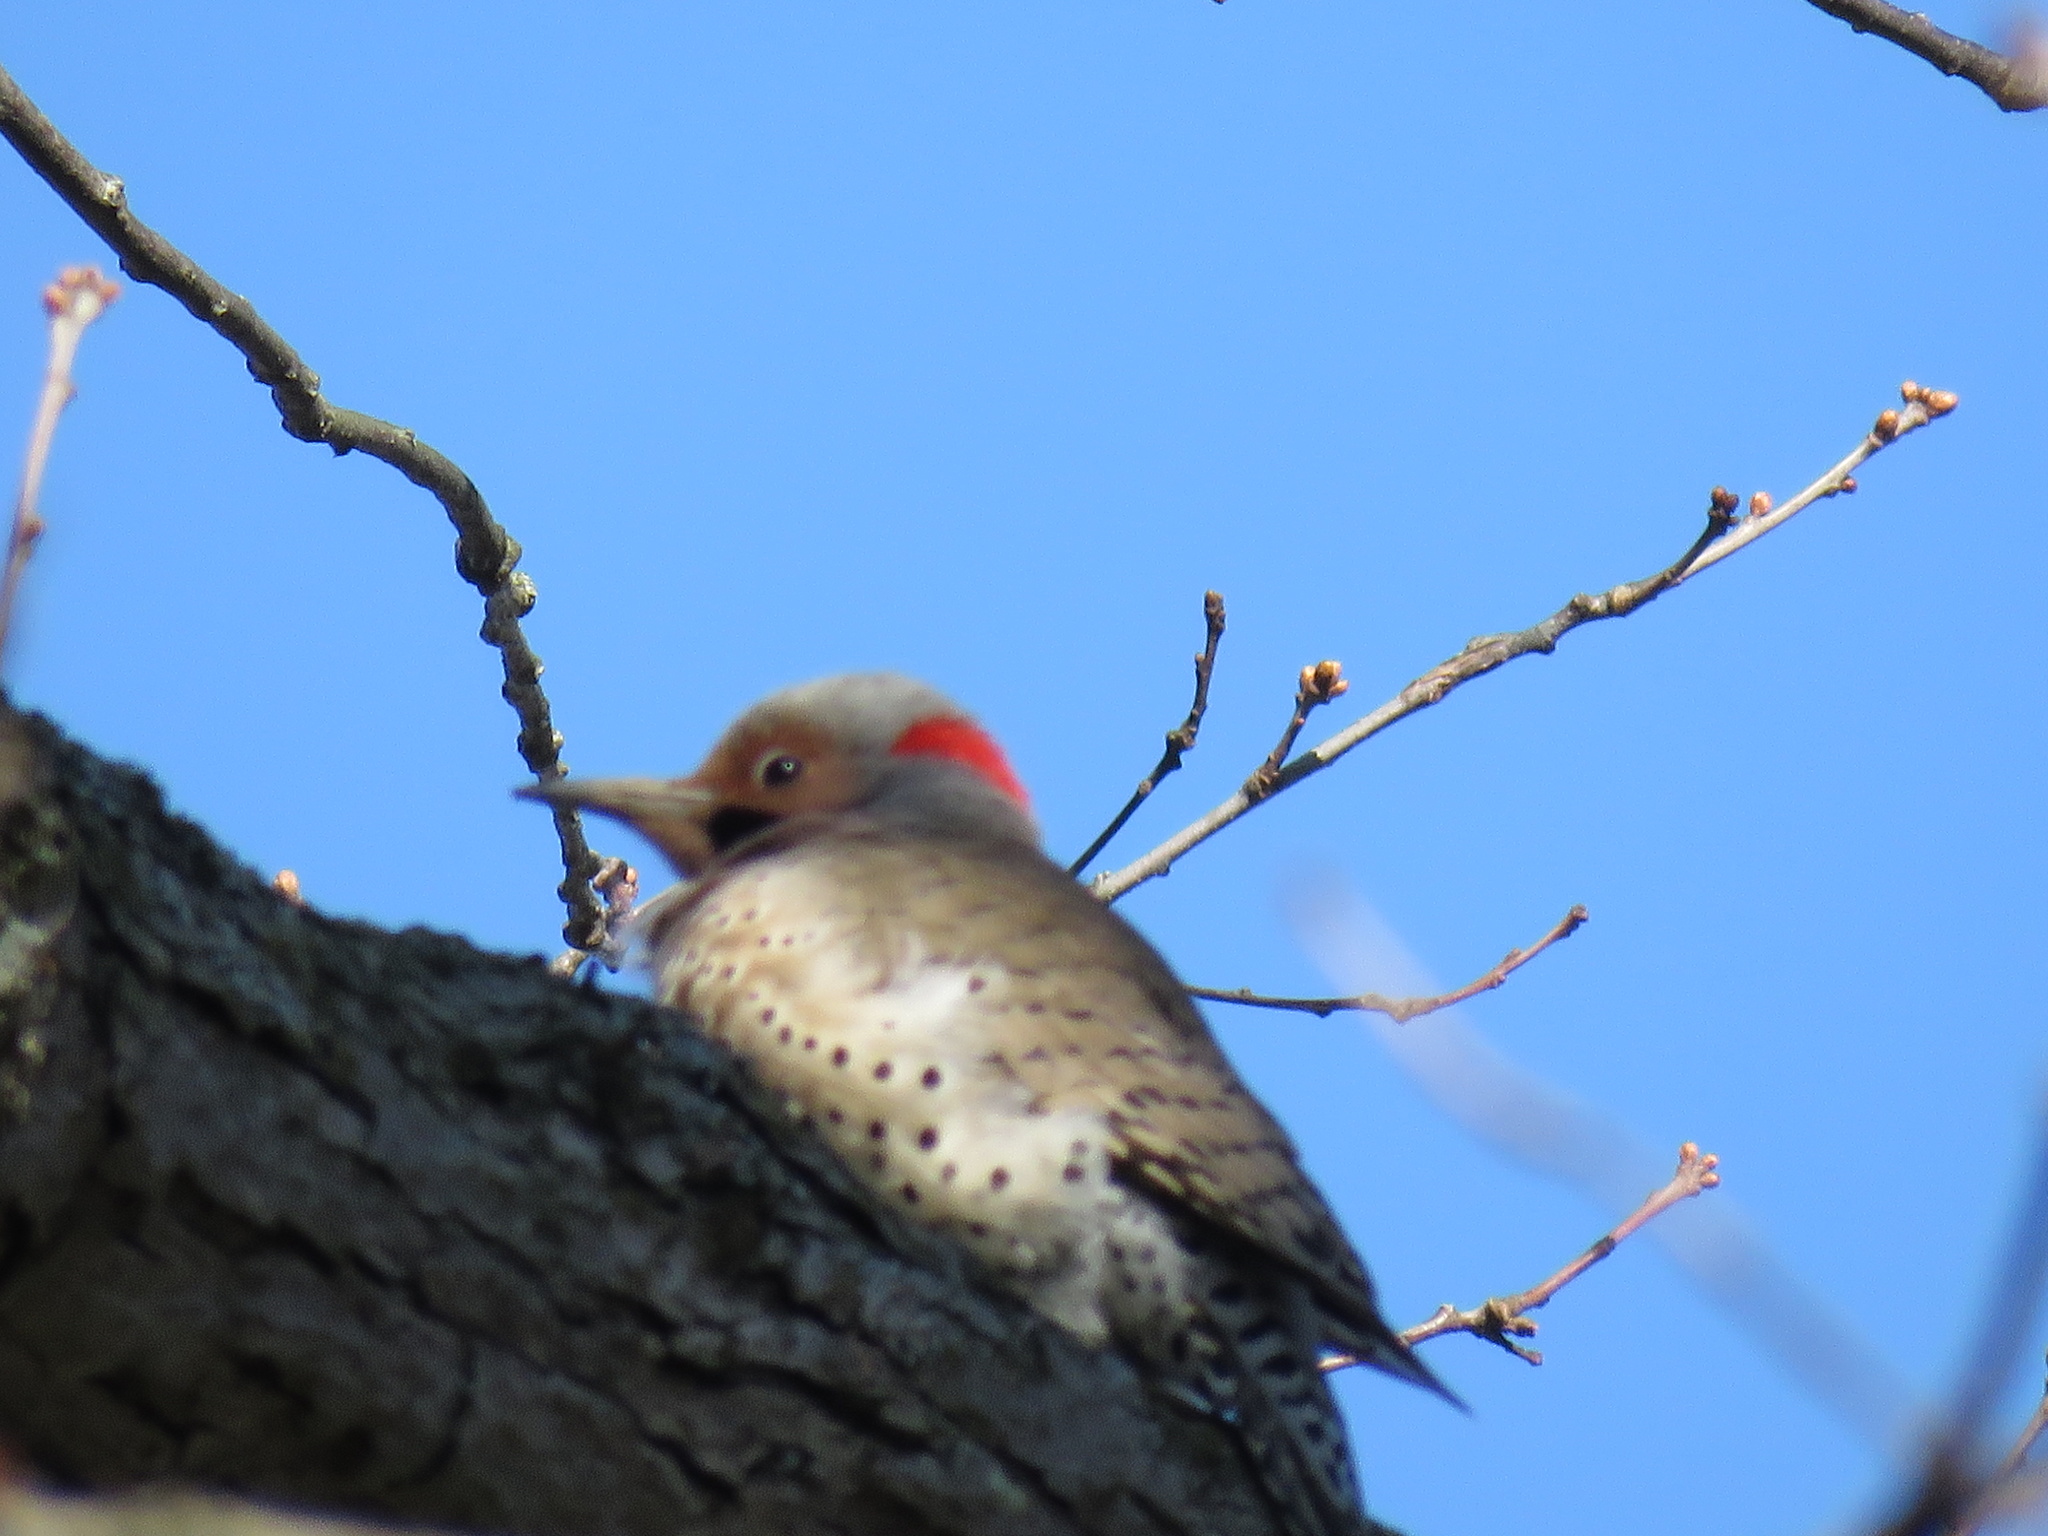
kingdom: Animalia
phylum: Chordata
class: Aves
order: Piciformes
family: Picidae
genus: Colaptes
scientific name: Colaptes auratus
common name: Northern flicker
